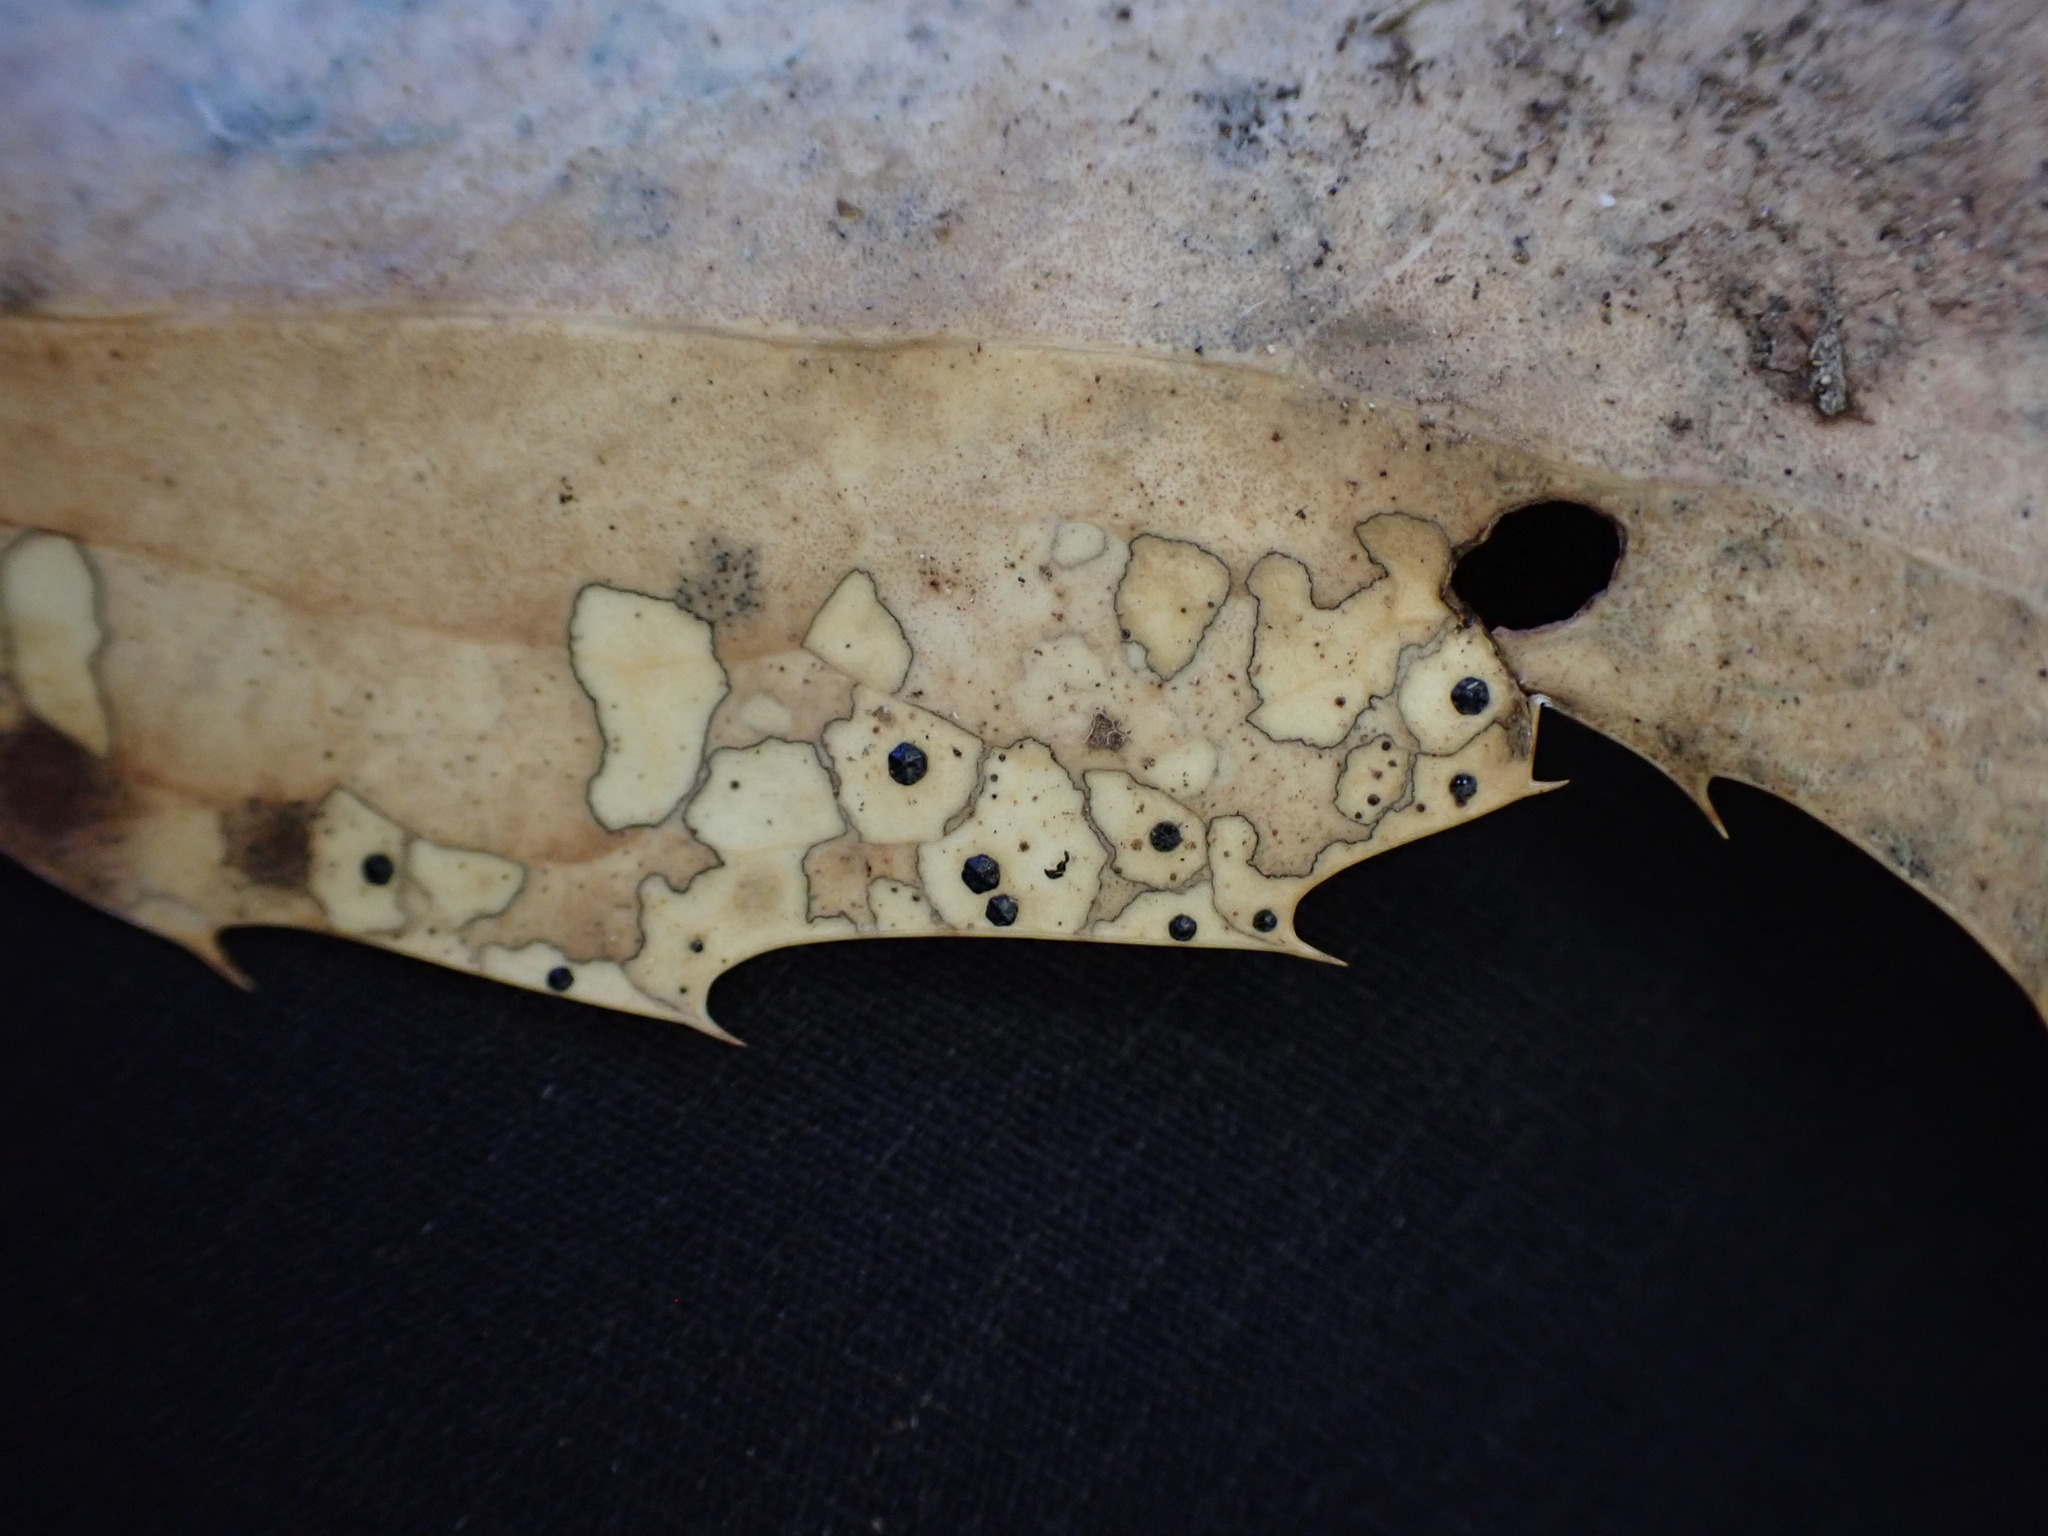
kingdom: Fungi
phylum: Ascomycota
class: Leotiomycetes
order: Rhytismatales
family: Rhytismataceae
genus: Coccomyces
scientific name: Coccomyces dentatus
